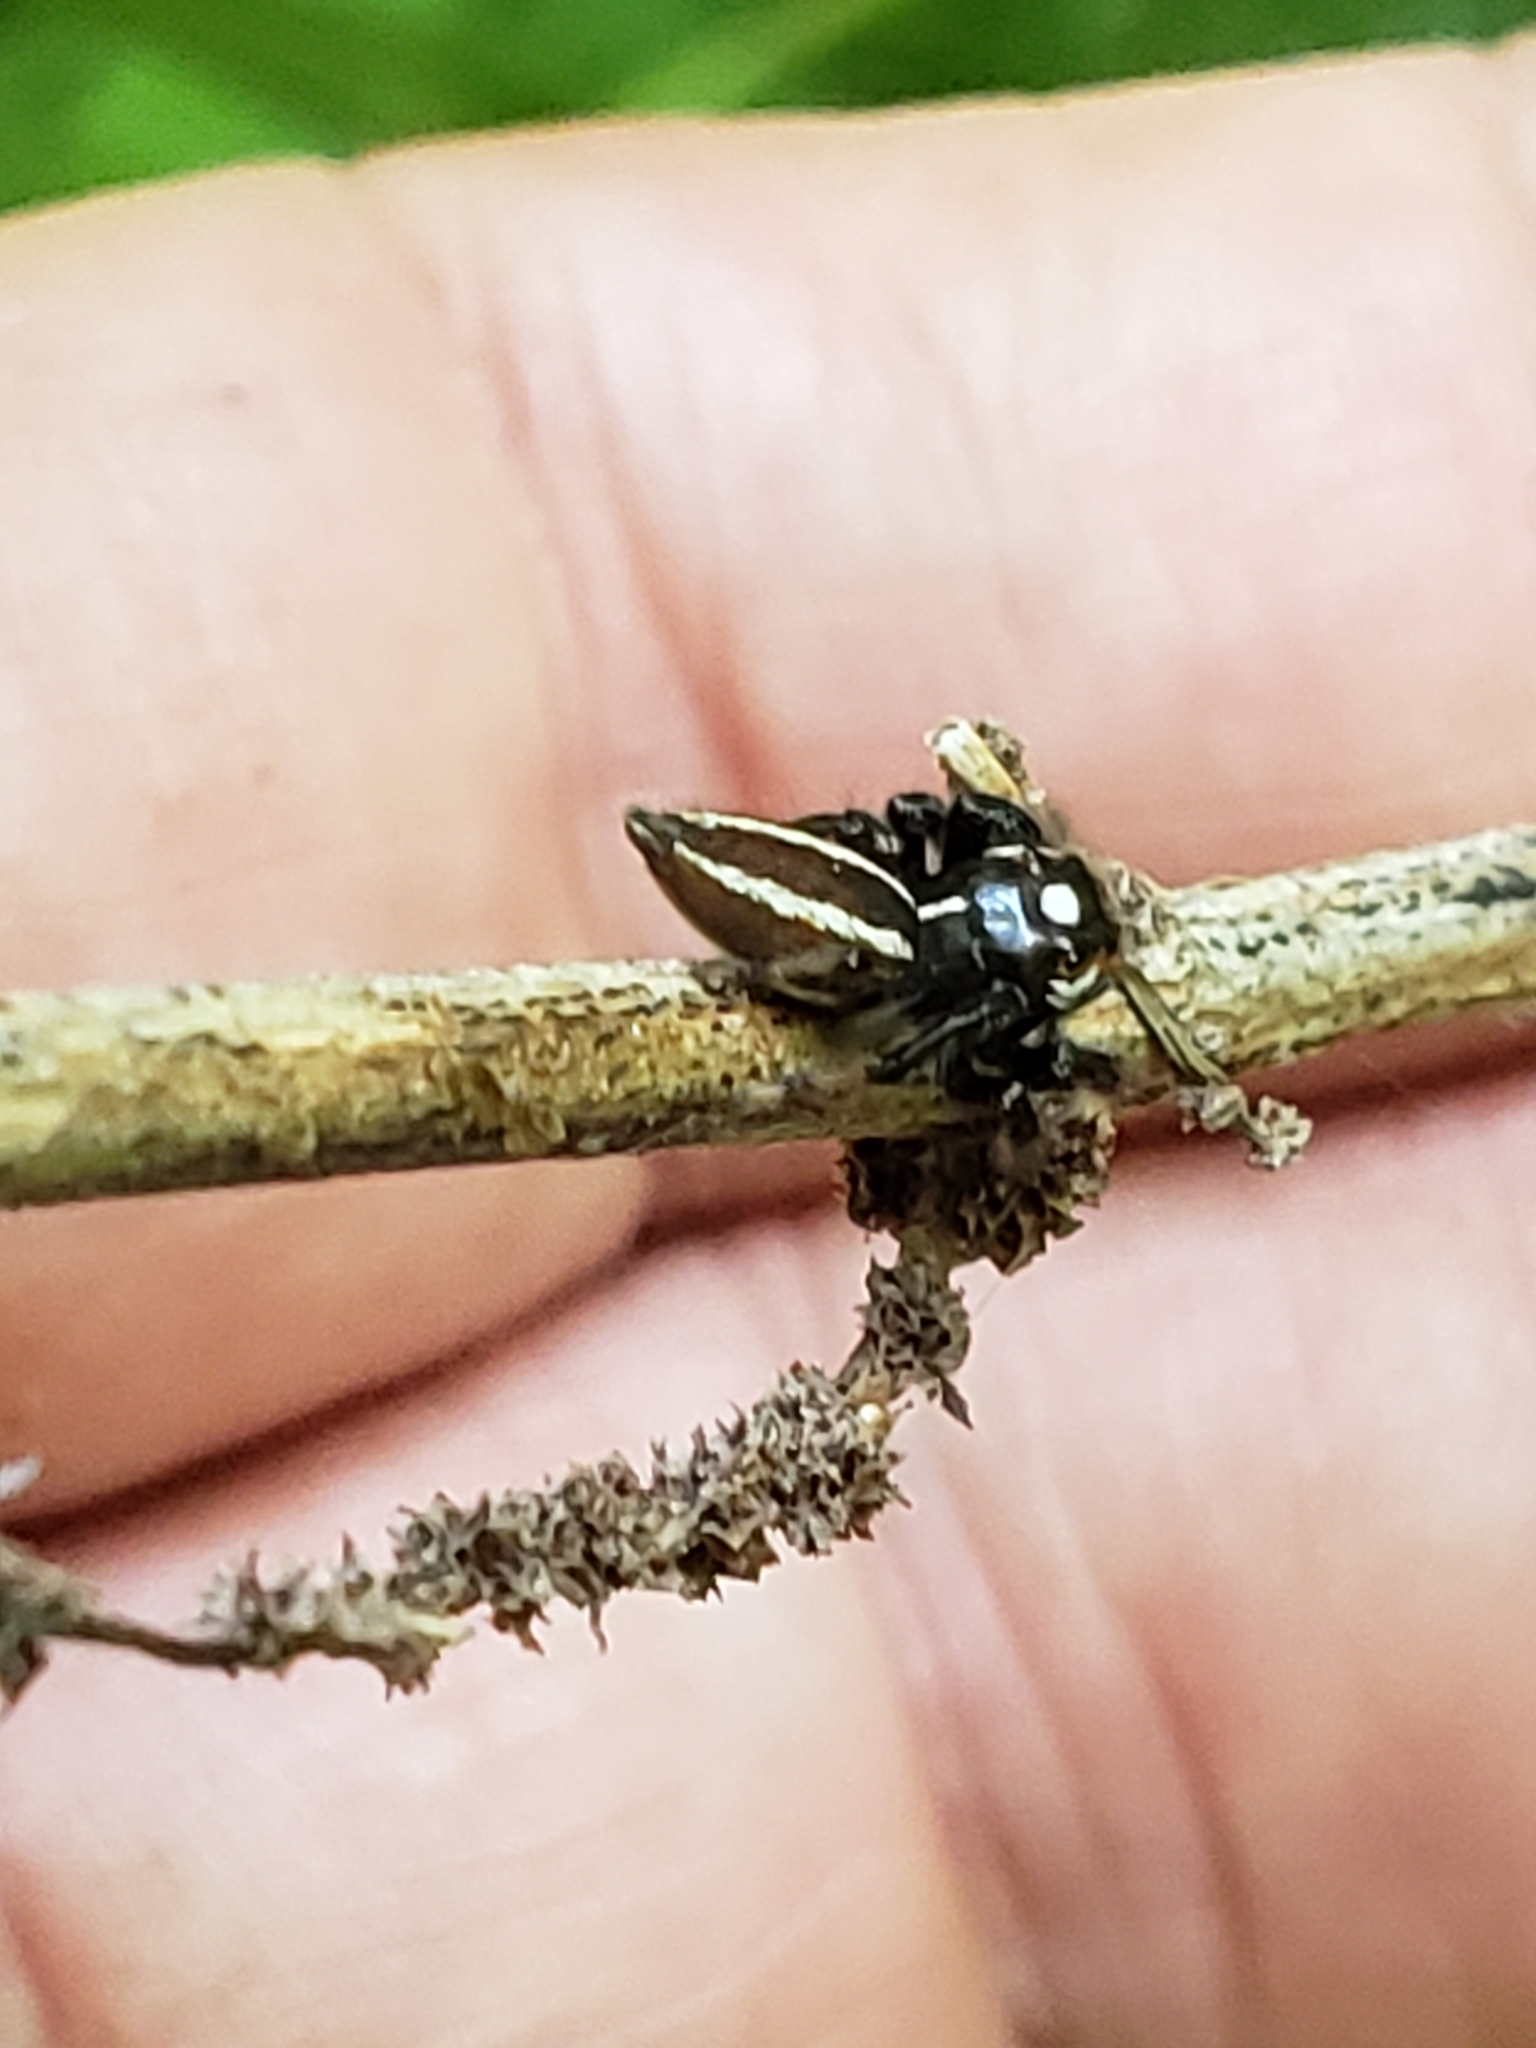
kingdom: Animalia
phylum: Arthropoda
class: Arachnida
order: Araneae
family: Salticidae
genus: Colonus
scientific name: Colonus sylvanus
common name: Jumping spiders
